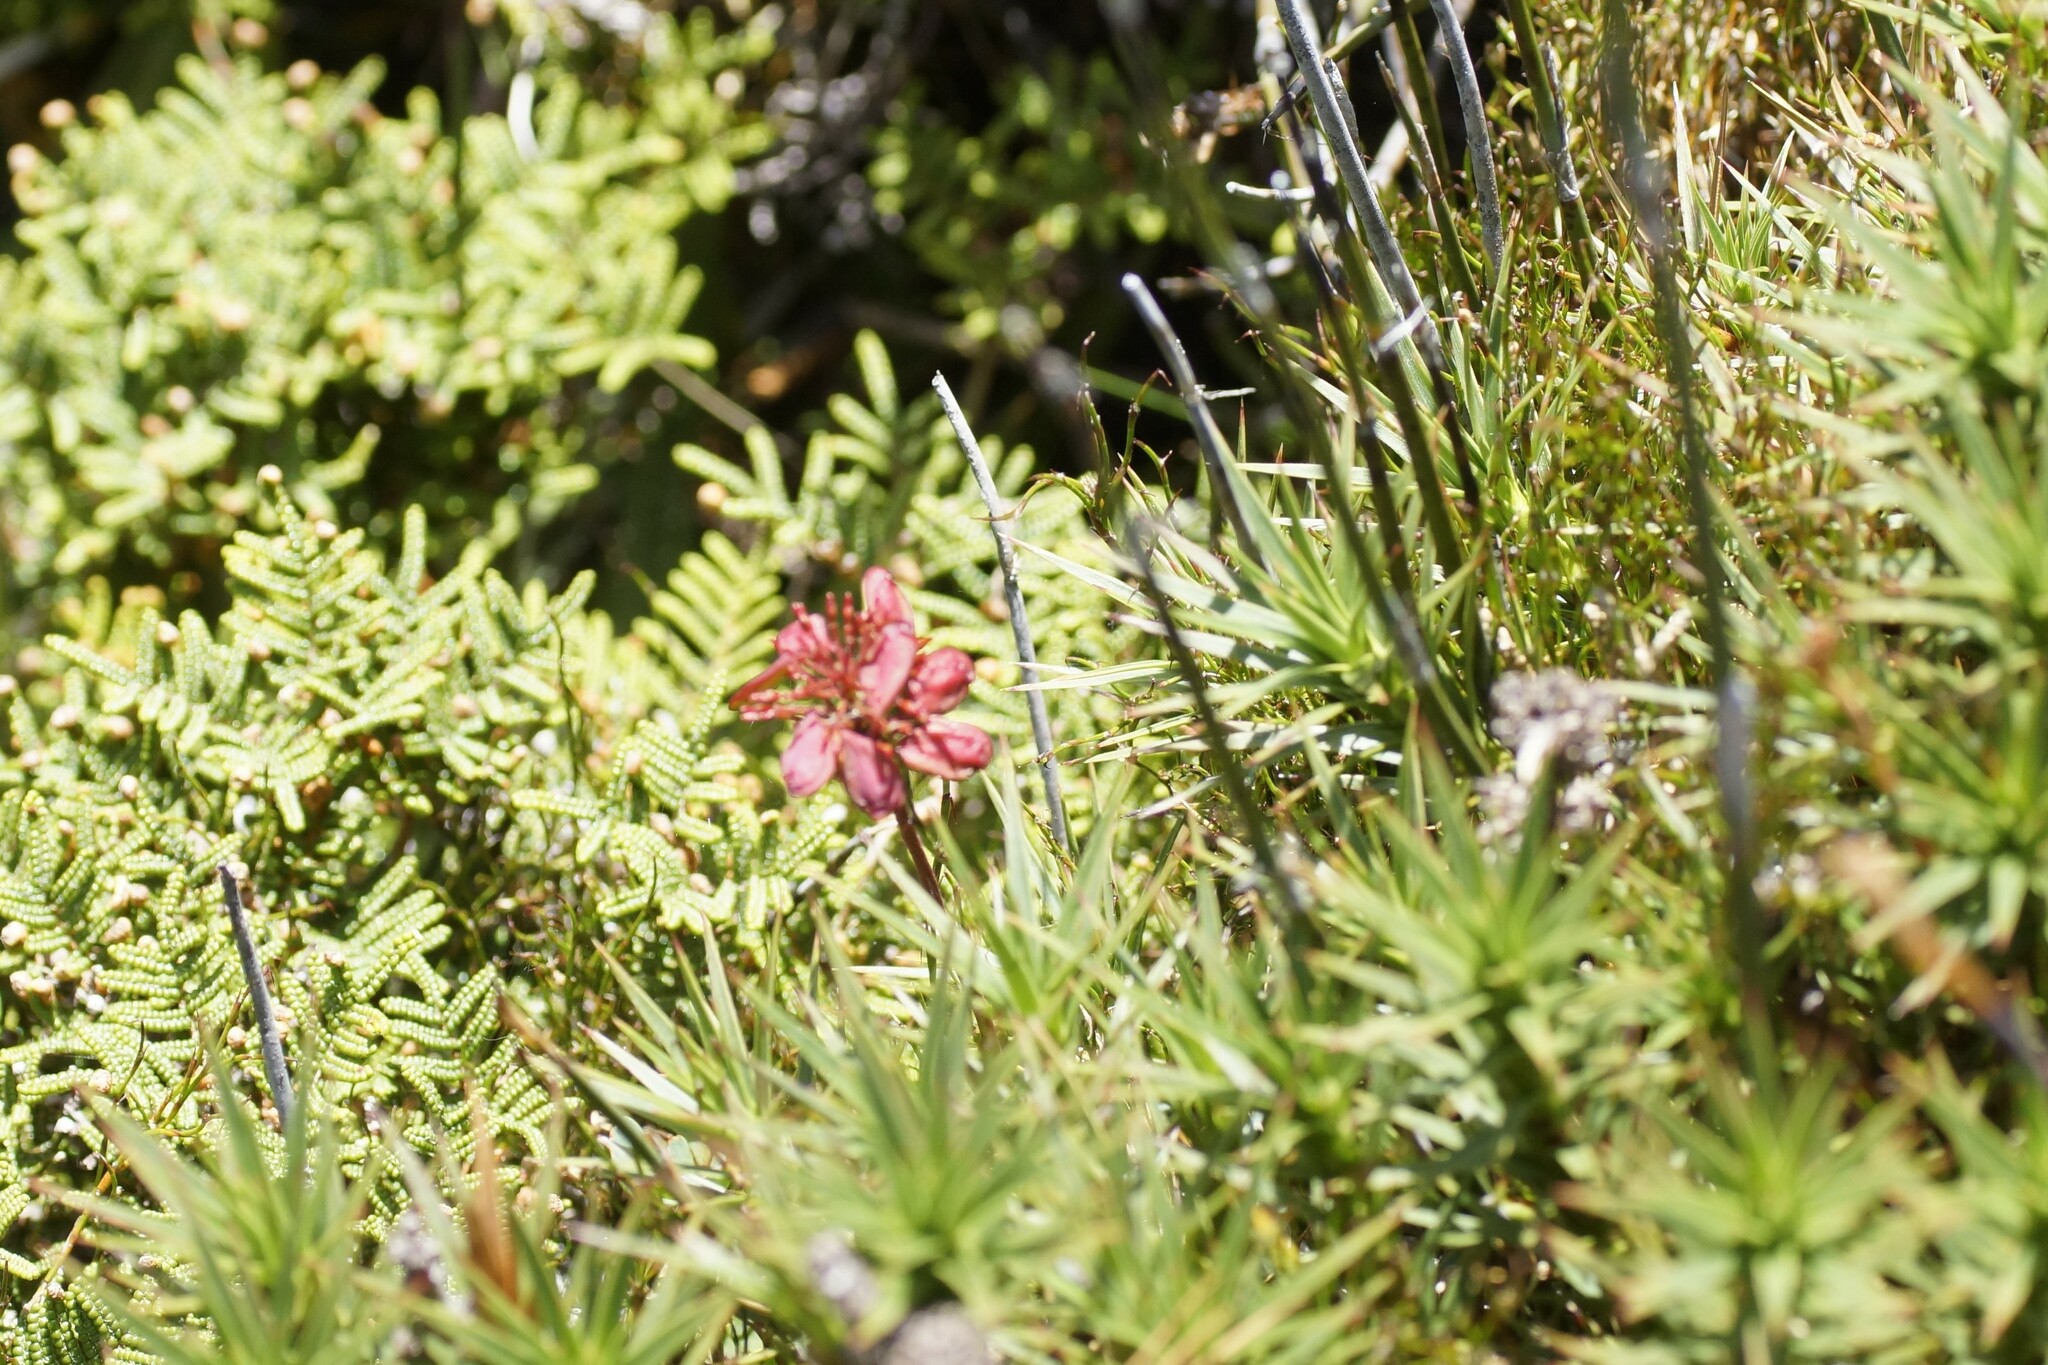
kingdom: Plantae
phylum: Tracheophyta
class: Magnoliopsida
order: Ericales
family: Ericaceae
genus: Dracophyllum
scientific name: Dracophyllum persistentifolium
